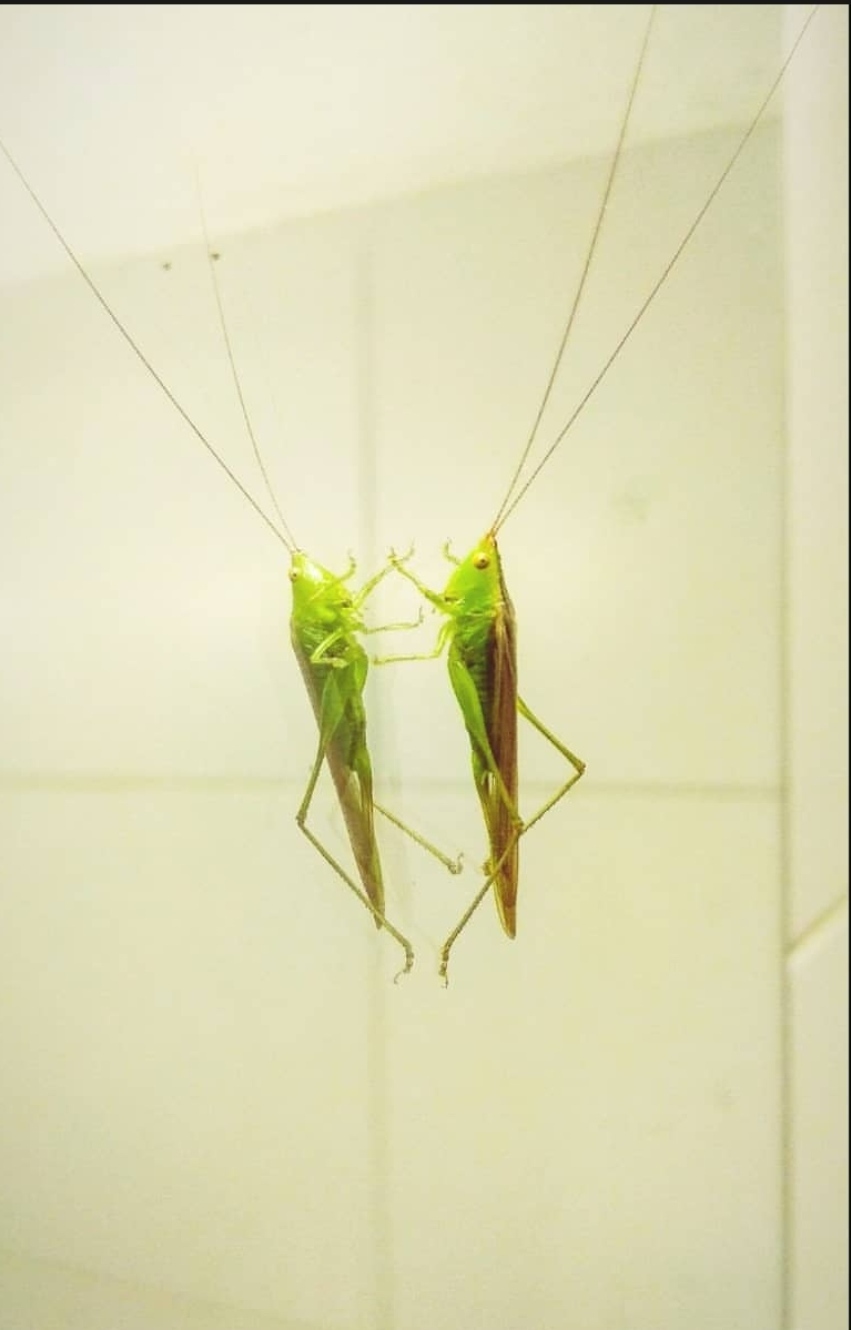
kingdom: Animalia
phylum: Arthropoda
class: Insecta
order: Orthoptera
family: Tettigoniidae
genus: Conocephalus
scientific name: Conocephalus longipes
